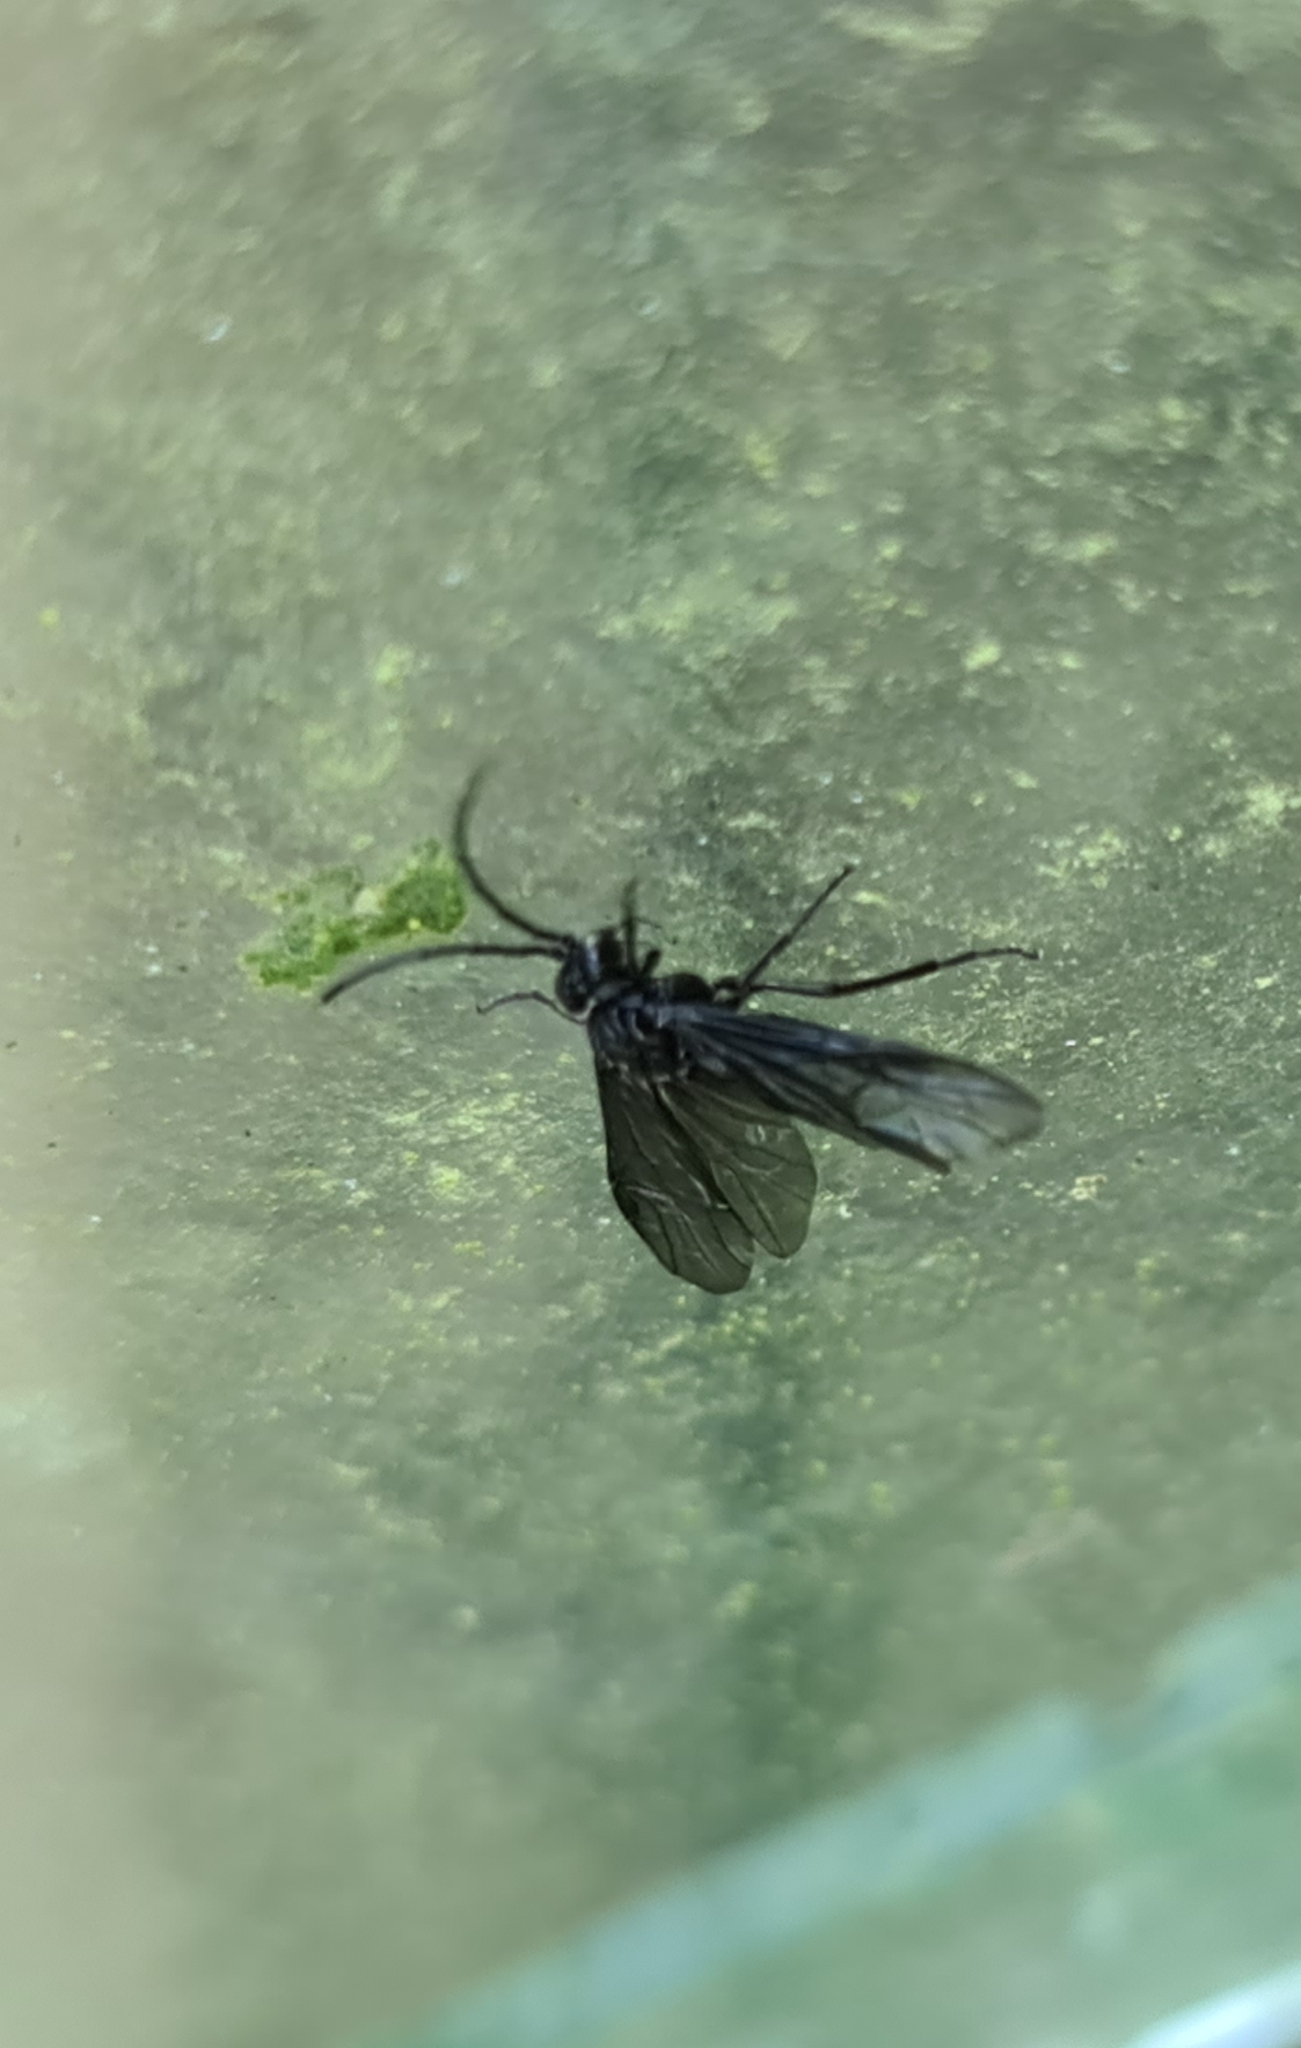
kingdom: Animalia
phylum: Arthropoda
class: Insecta
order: Hymenoptera
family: Tenthredinidae
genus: Phymatocera
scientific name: Phymatocera aterrima
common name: Solomon's-seal sawfly
